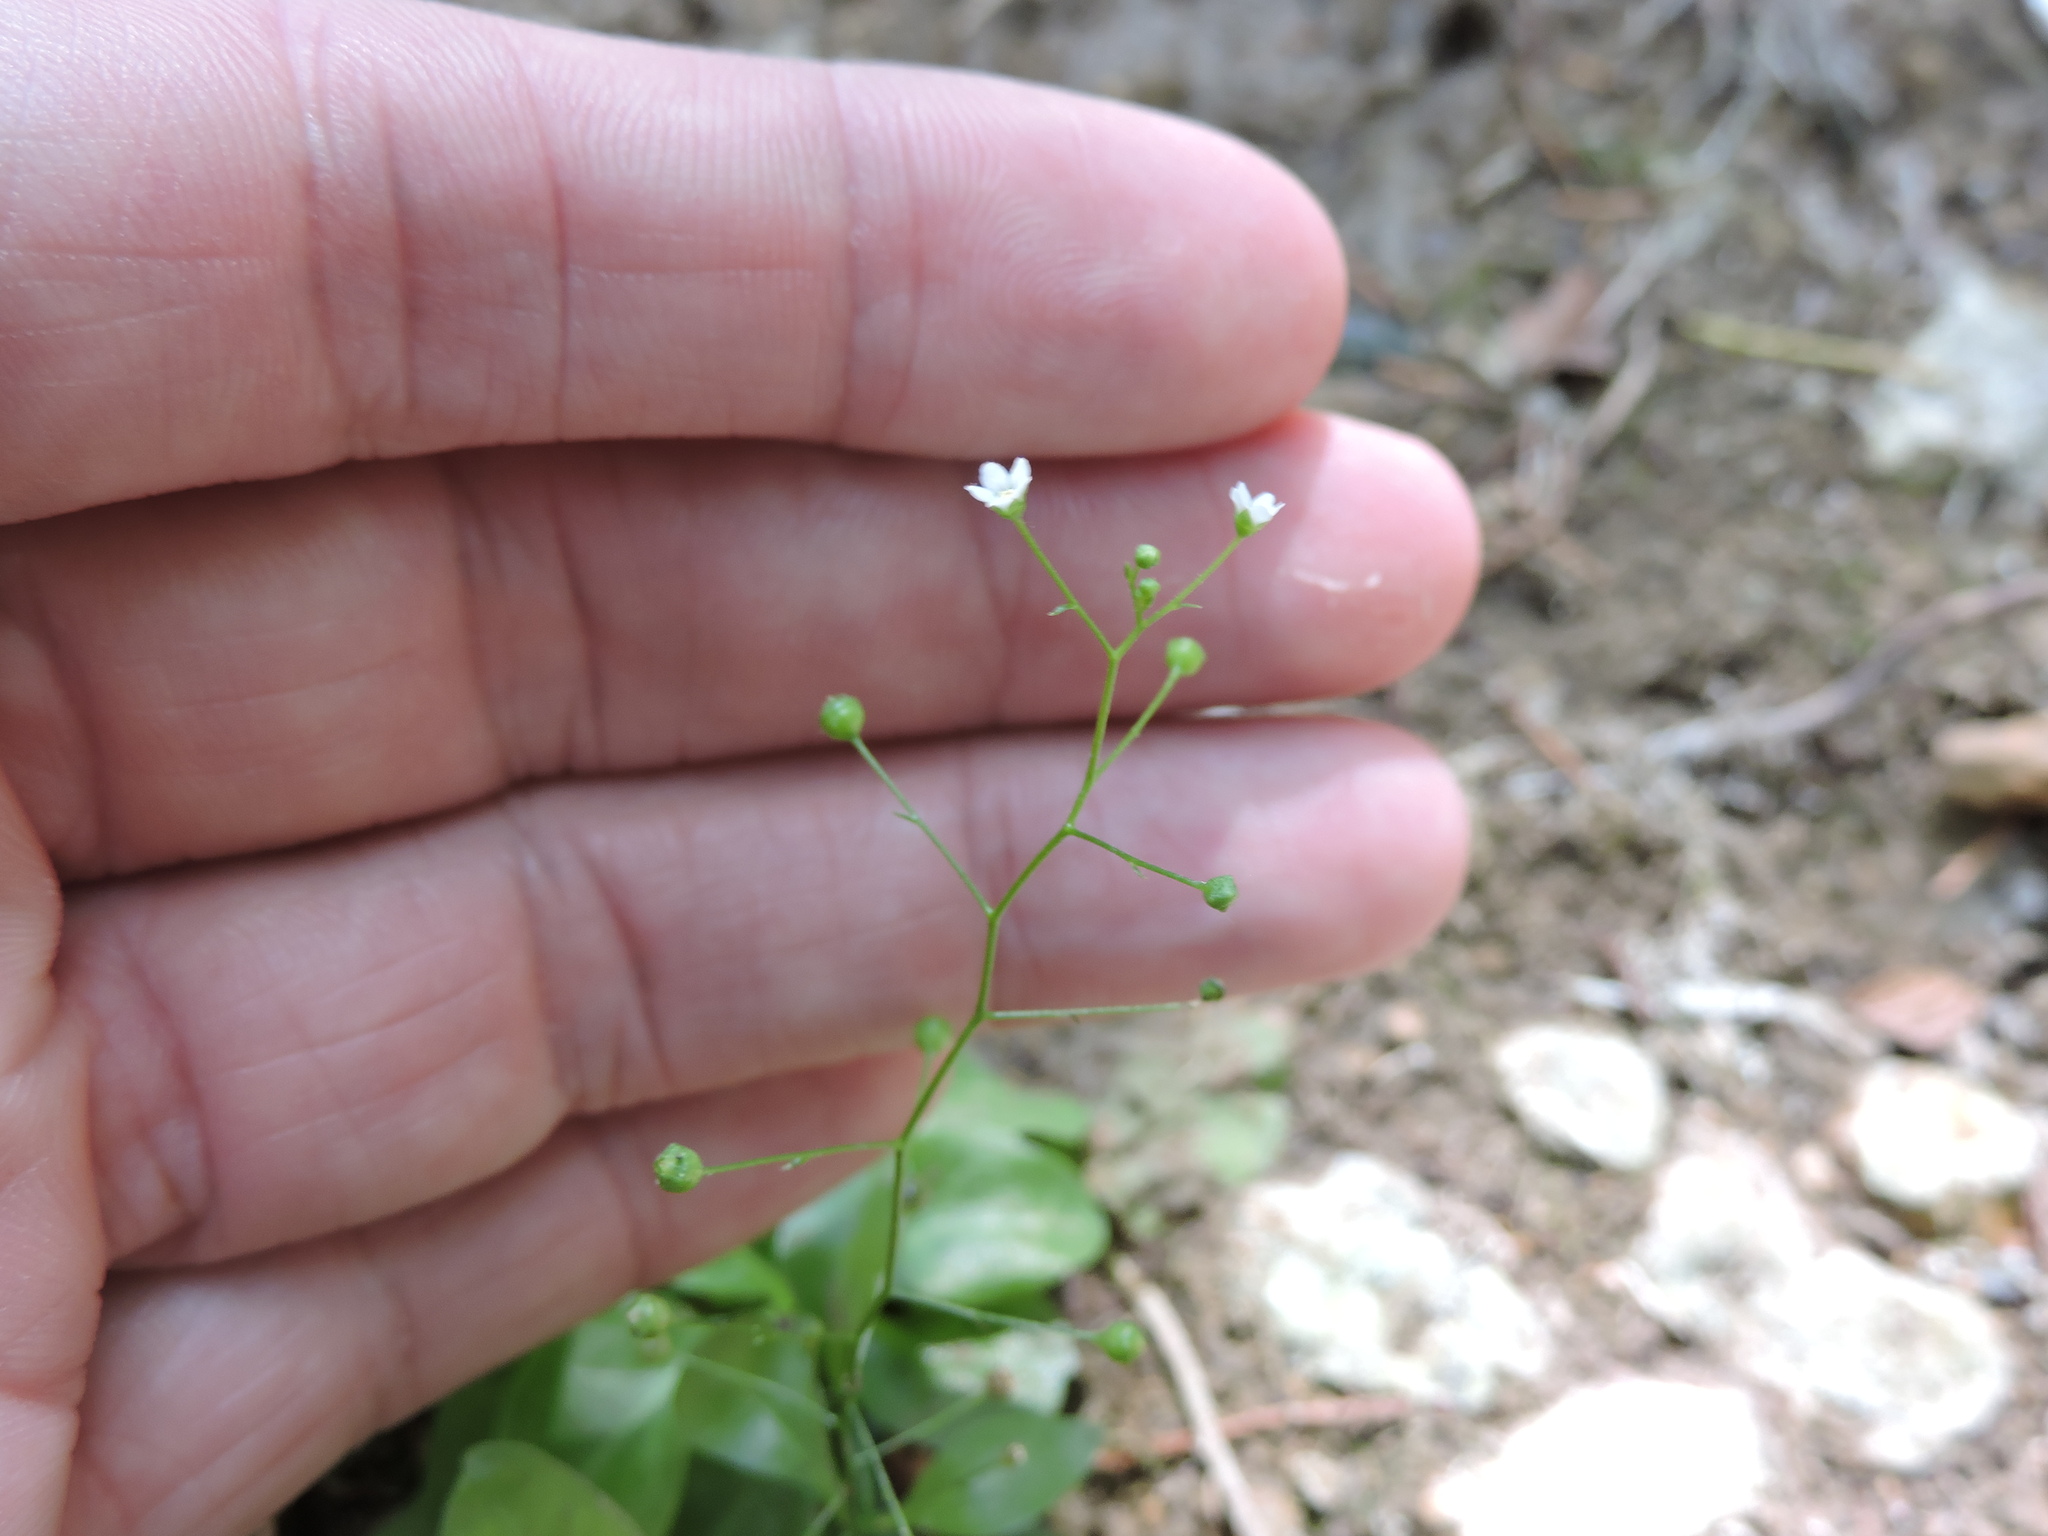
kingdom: Plantae
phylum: Tracheophyta
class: Magnoliopsida
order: Ericales
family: Primulaceae
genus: Samolus
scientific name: Samolus parviflorus
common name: False water pimpernel
